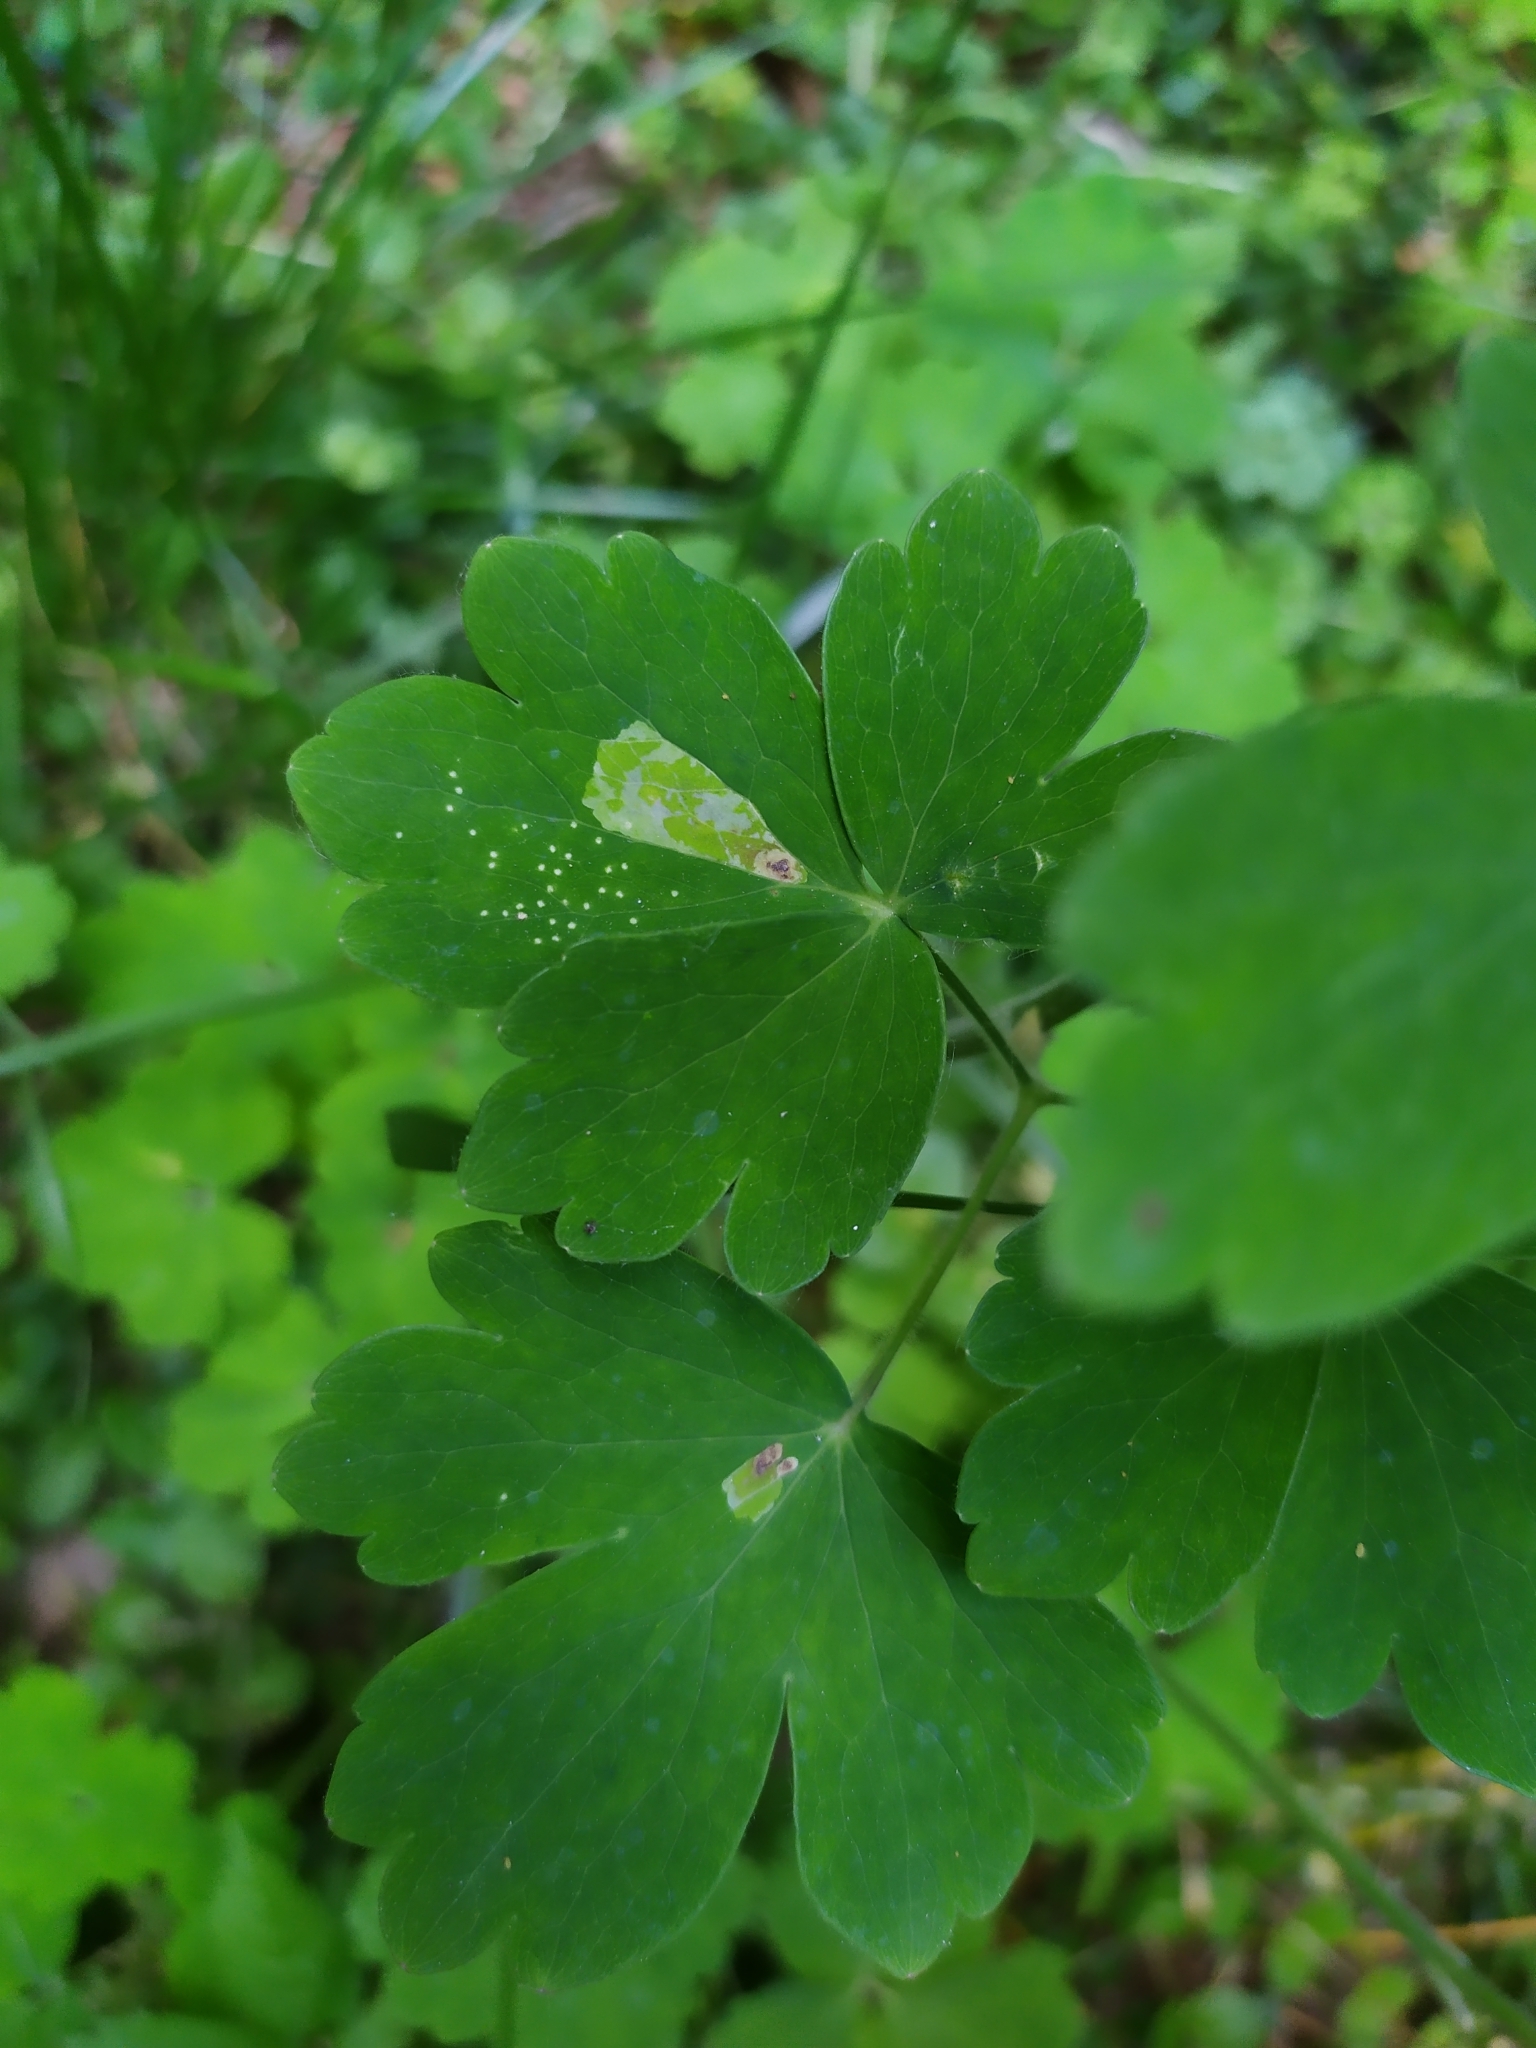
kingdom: Animalia
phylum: Arthropoda
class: Insecta
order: Diptera
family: Agromyzidae
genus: Phytomyza
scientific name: Phytomyza aquilegiae
